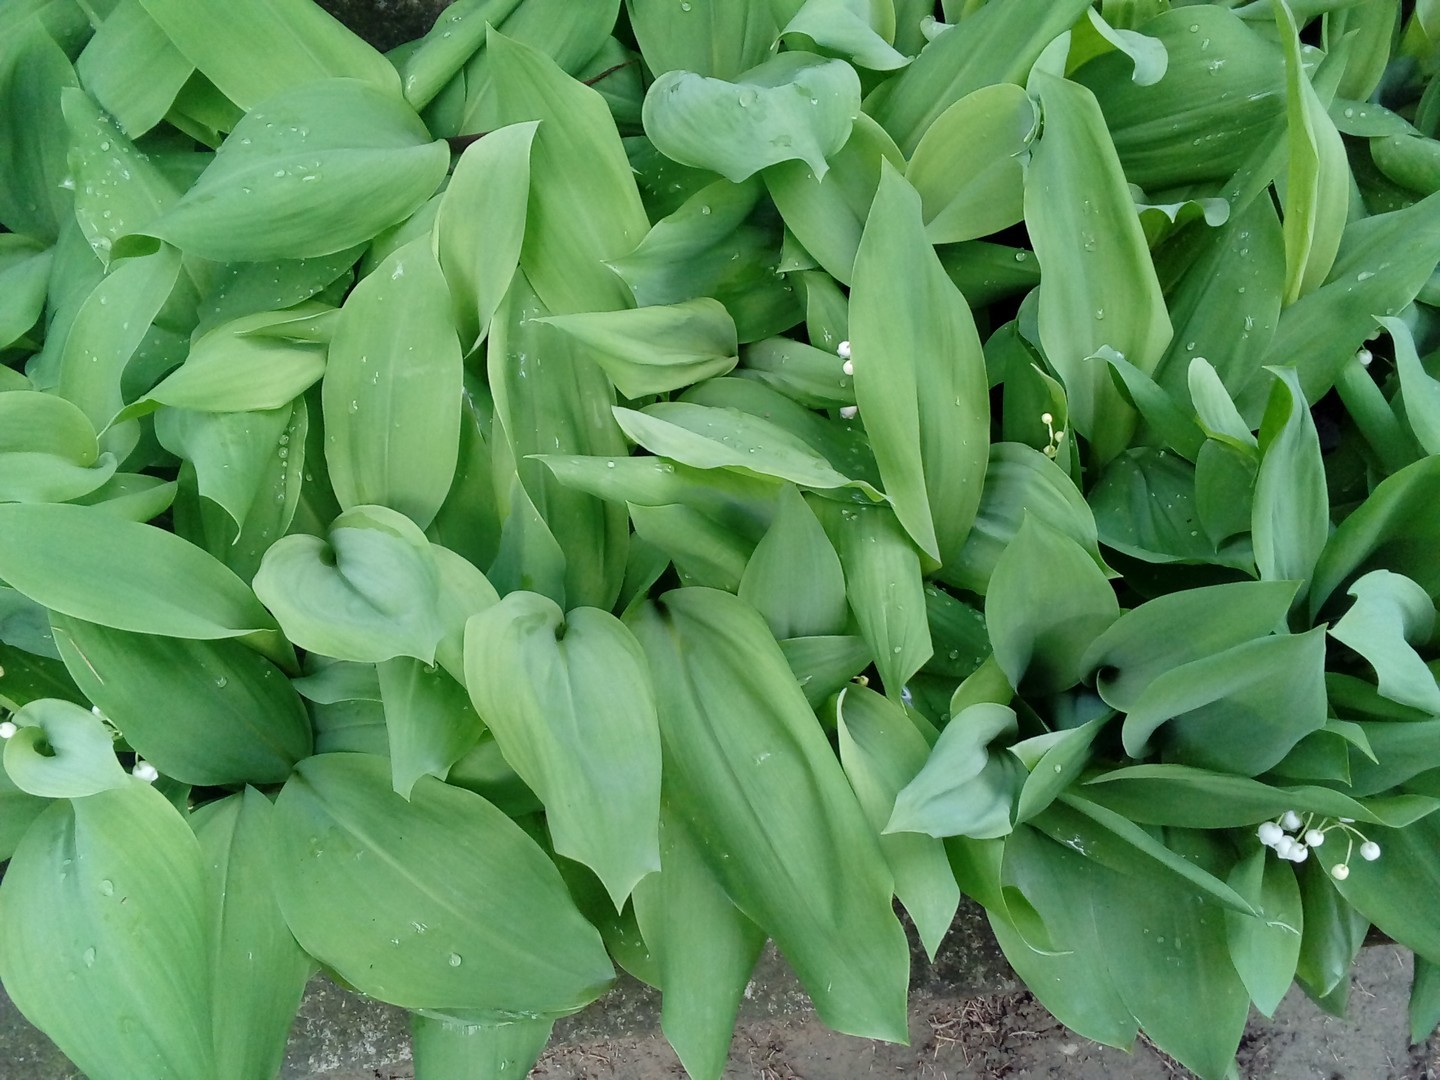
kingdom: Plantae
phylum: Tracheophyta
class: Liliopsida
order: Asparagales
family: Asparagaceae
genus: Convallaria
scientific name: Convallaria majalis
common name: Lily-of-the-valley
